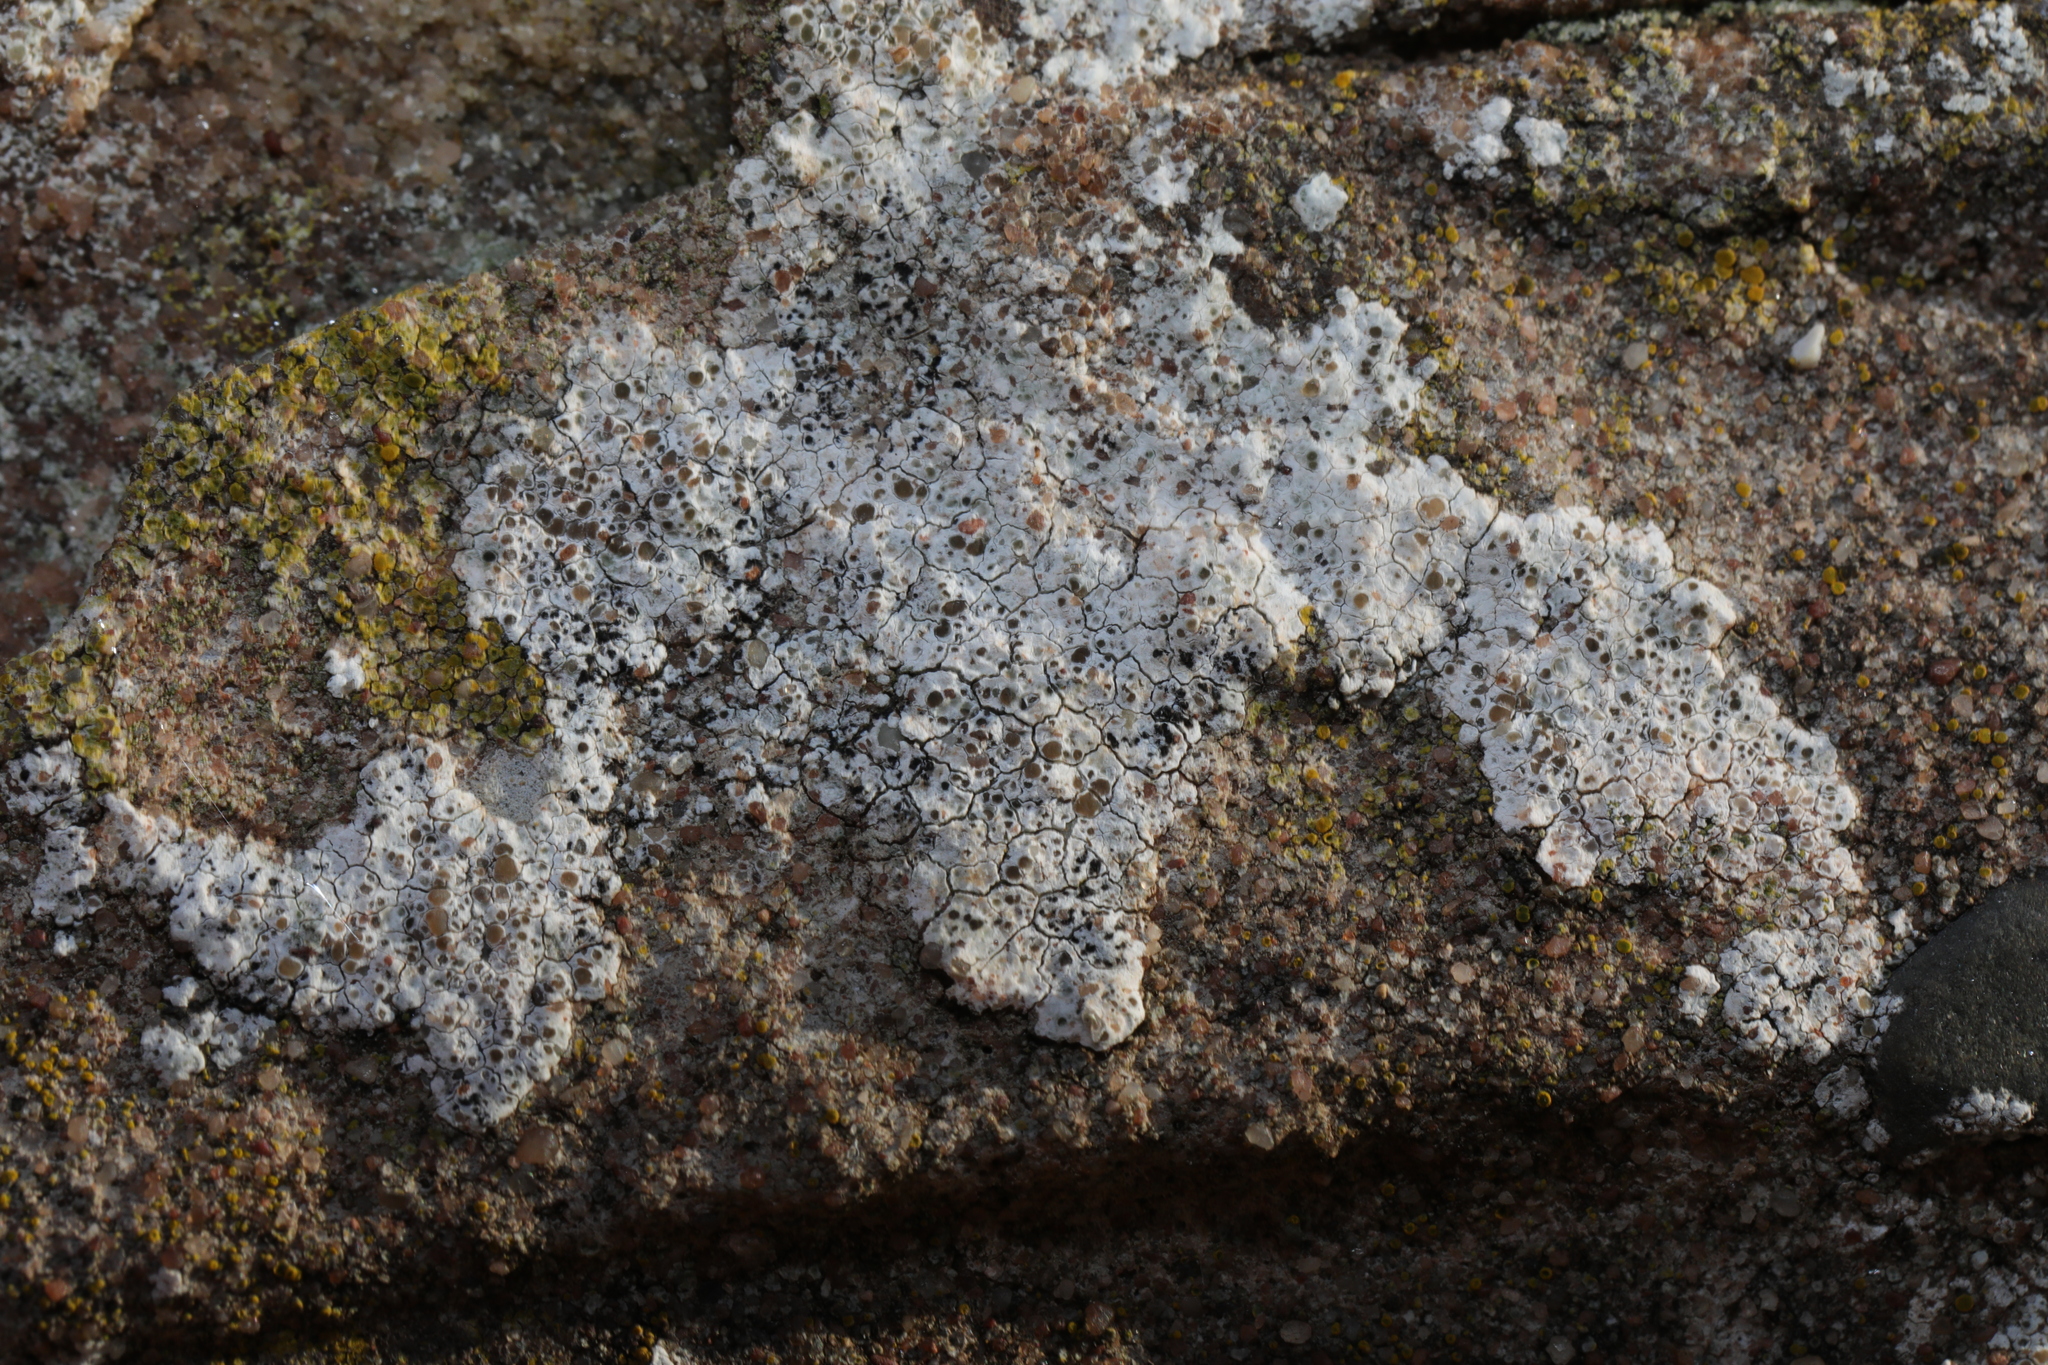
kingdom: Fungi
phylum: Ascomycota
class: Lecanoromycetes
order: Lecanorales
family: Lecanoraceae
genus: Polyozosia
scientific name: Polyozosia albescens
